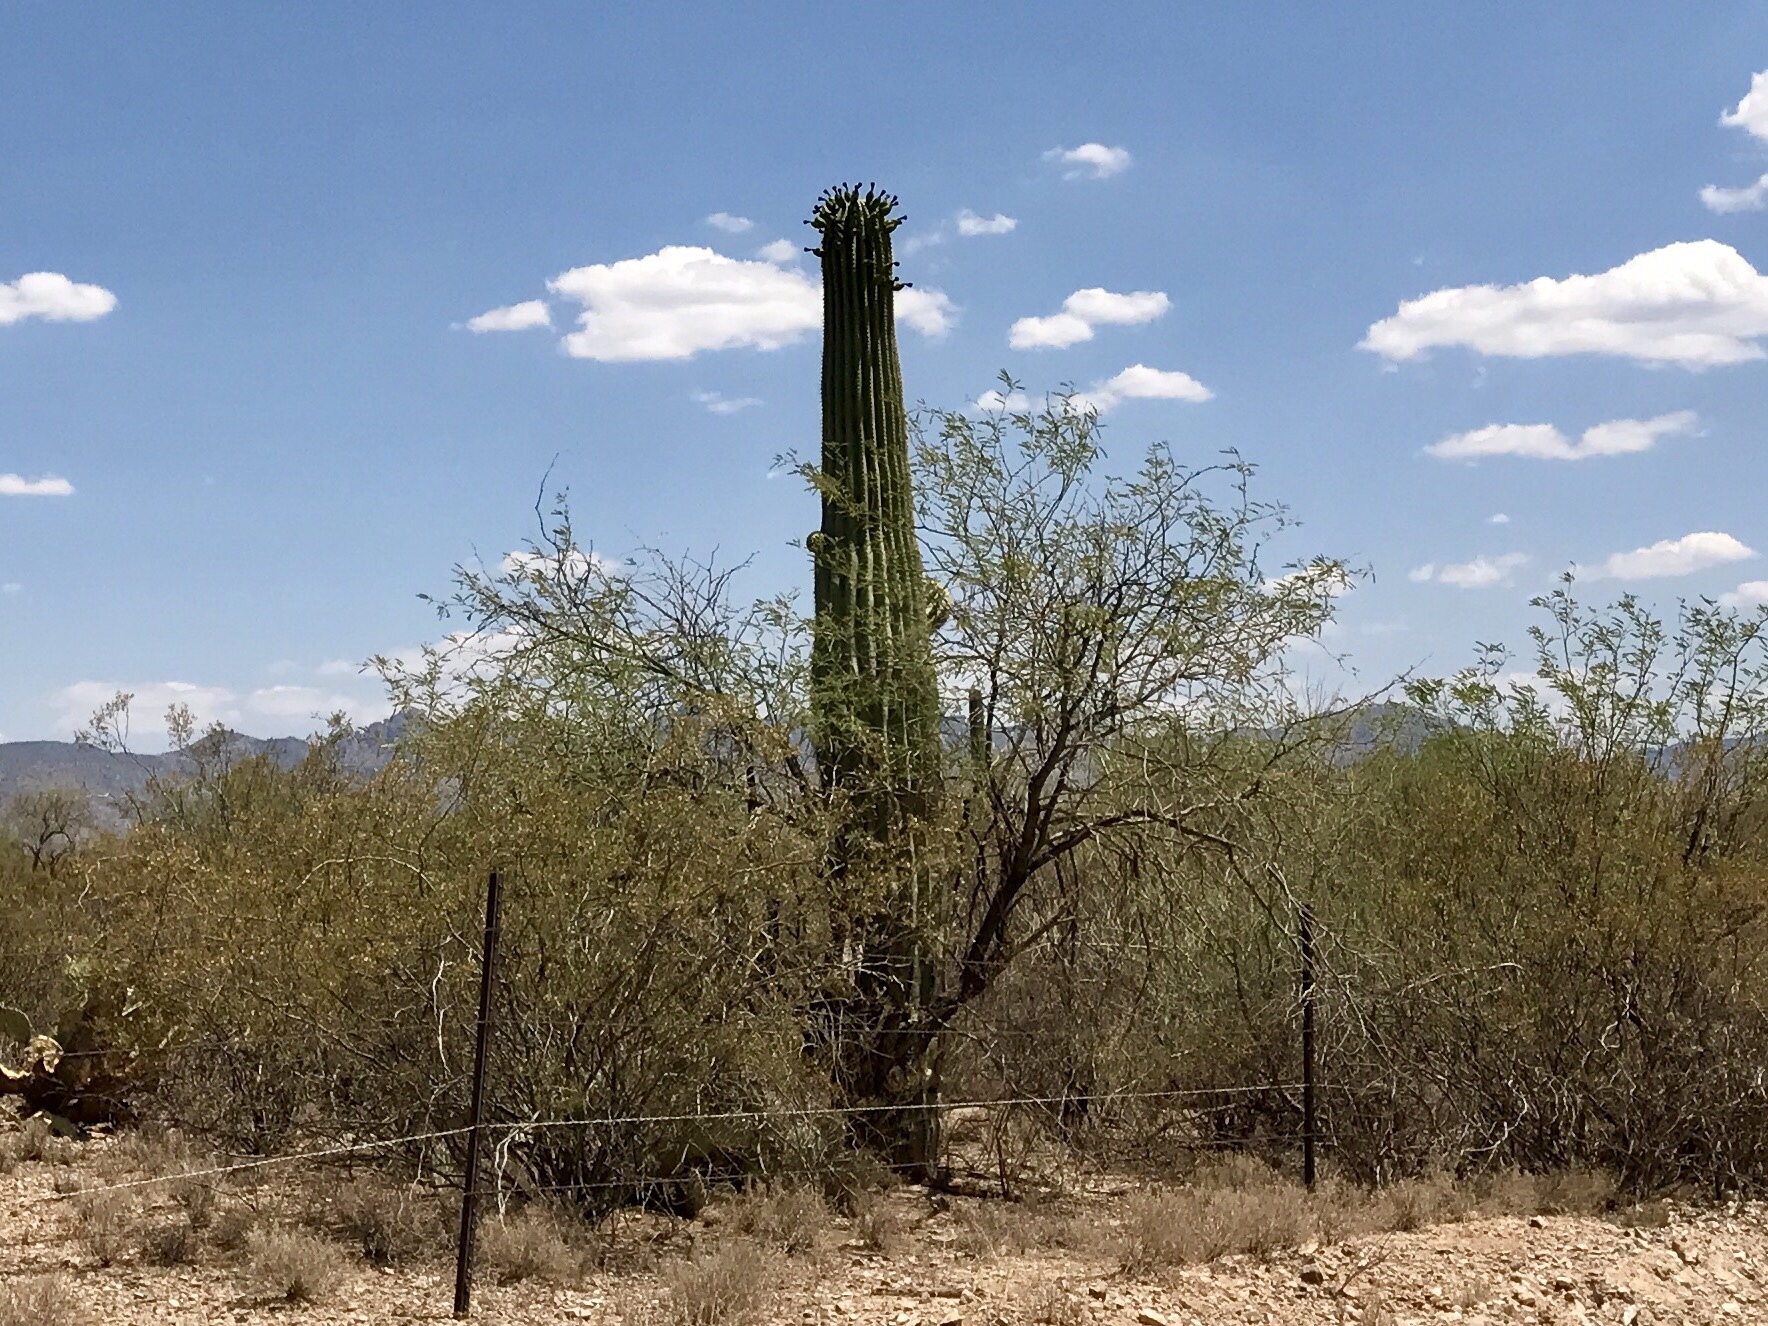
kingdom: Plantae
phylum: Tracheophyta
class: Magnoliopsida
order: Caryophyllales
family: Cactaceae
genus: Carnegiea
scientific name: Carnegiea gigantea
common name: Saguaro
